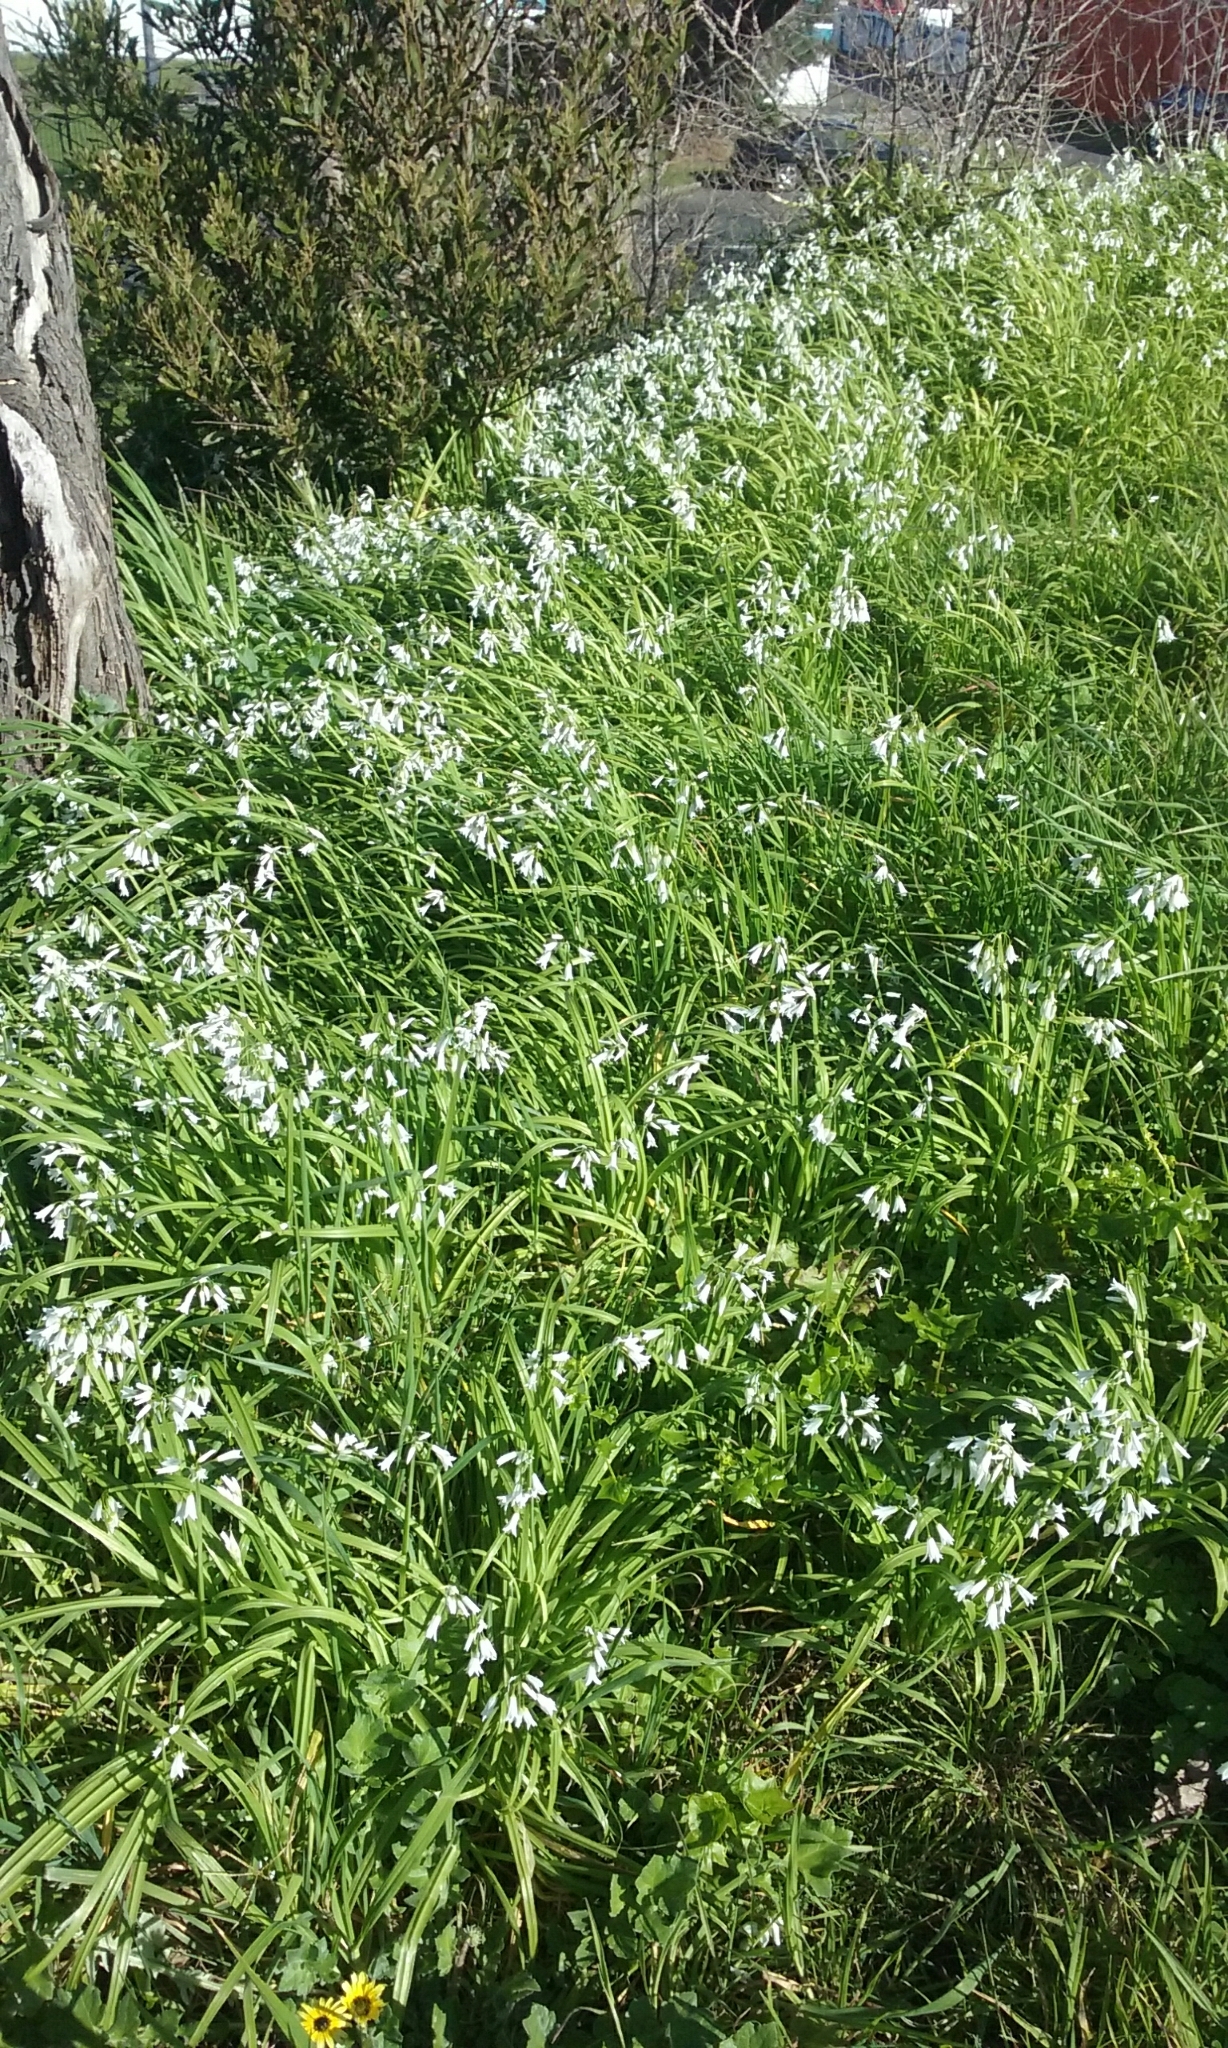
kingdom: Plantae
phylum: Tracheophyta
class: Liliopsida
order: Asparagales
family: Amaryllidaceae
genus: Allium
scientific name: Allium triquetrum
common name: Three-cornered garlic
